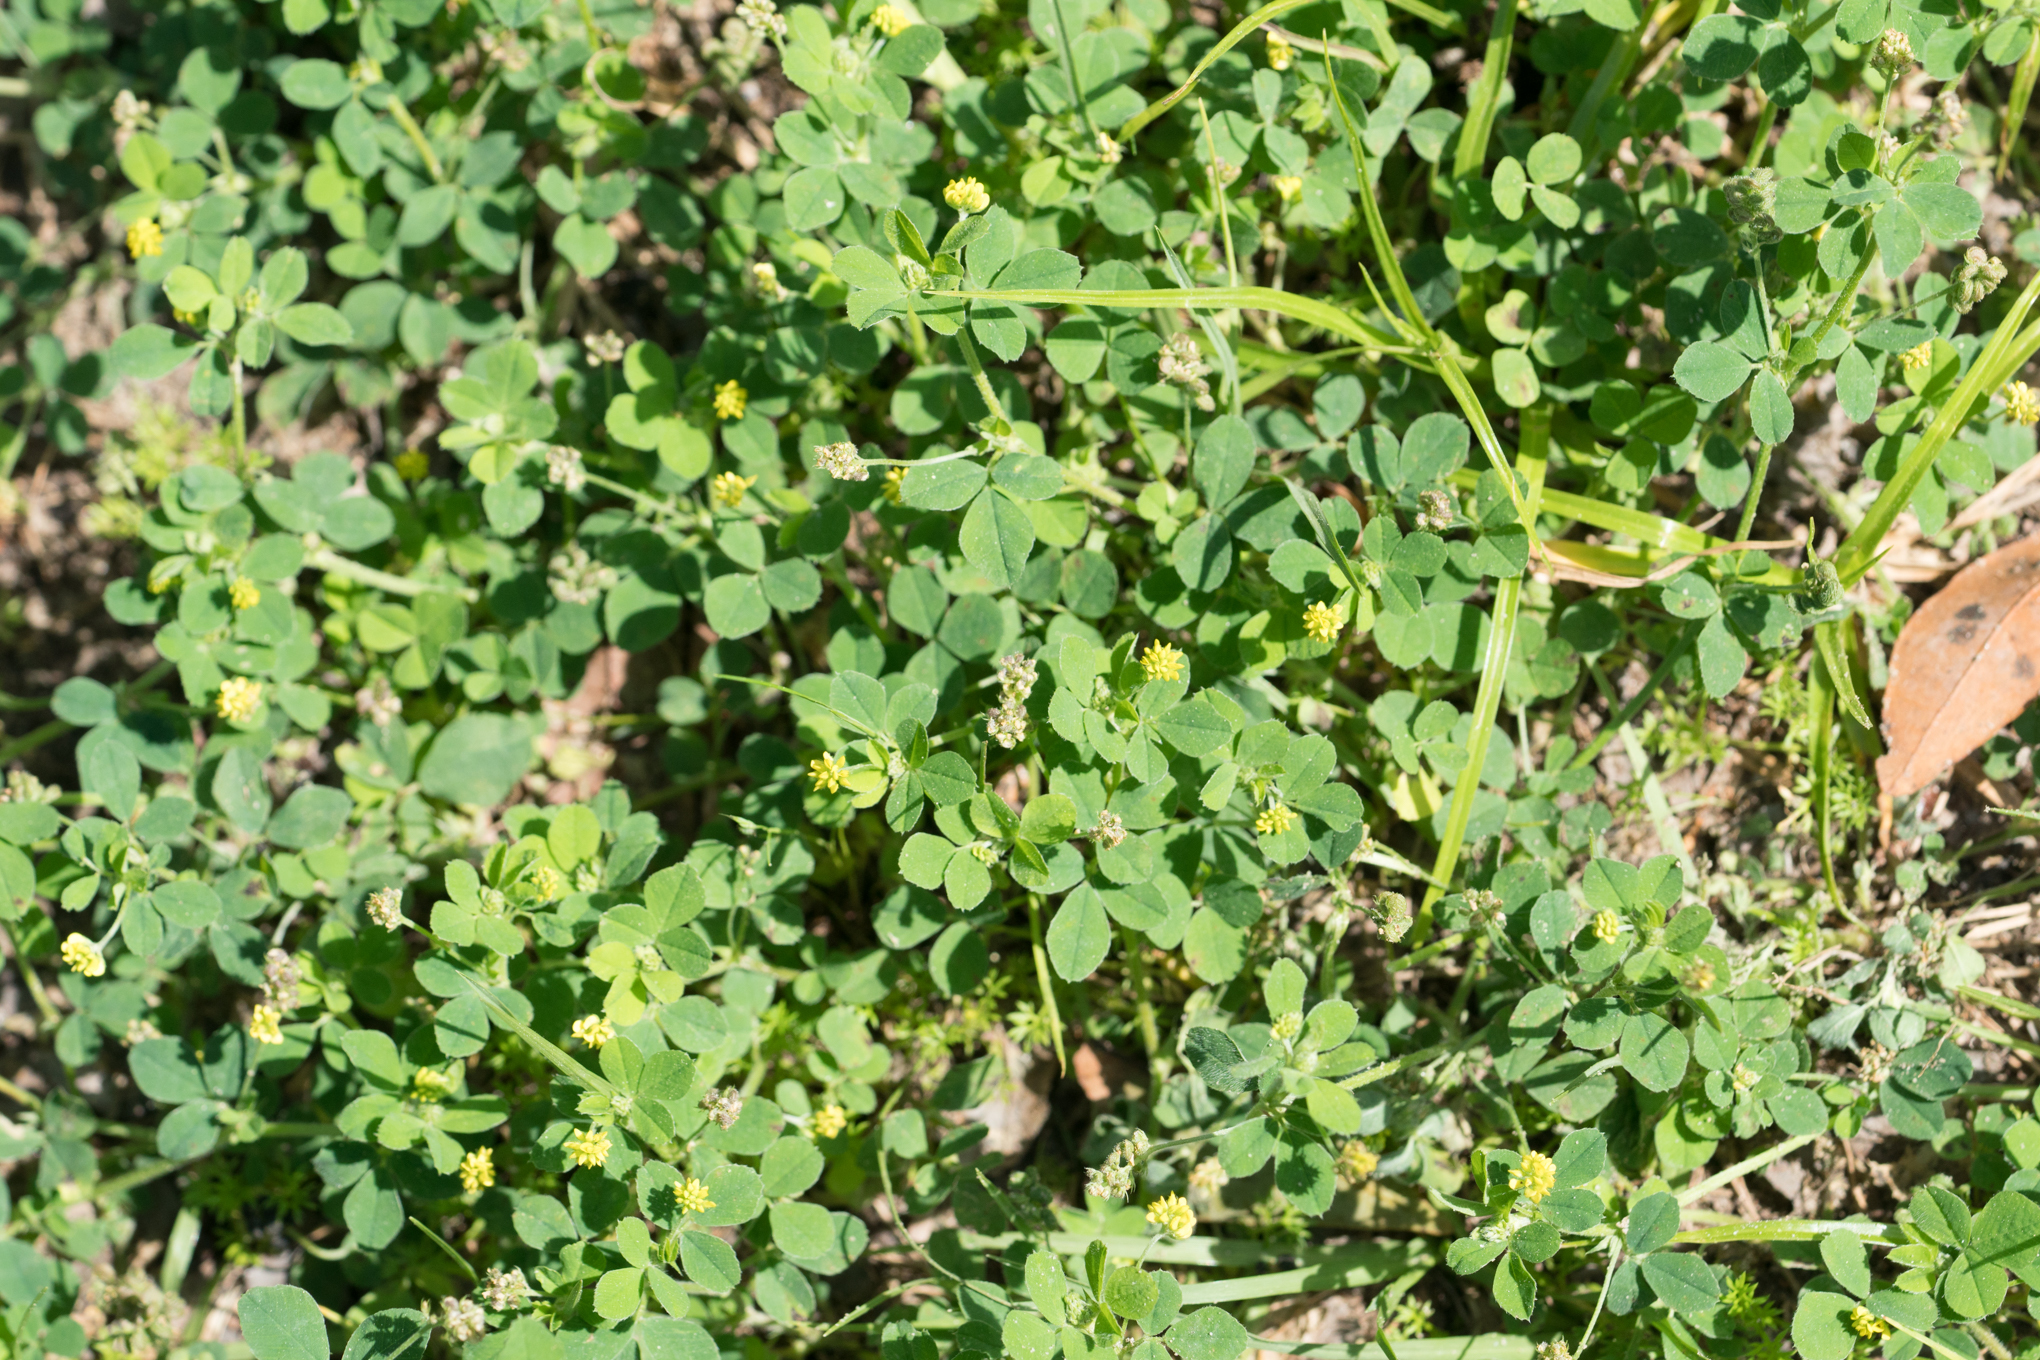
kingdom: Plantae
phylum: Tracheophyta
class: Magnoliopsida
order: Fabales
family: Fabaceae
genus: Medicago
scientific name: Medicago lupulina
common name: Black medick
